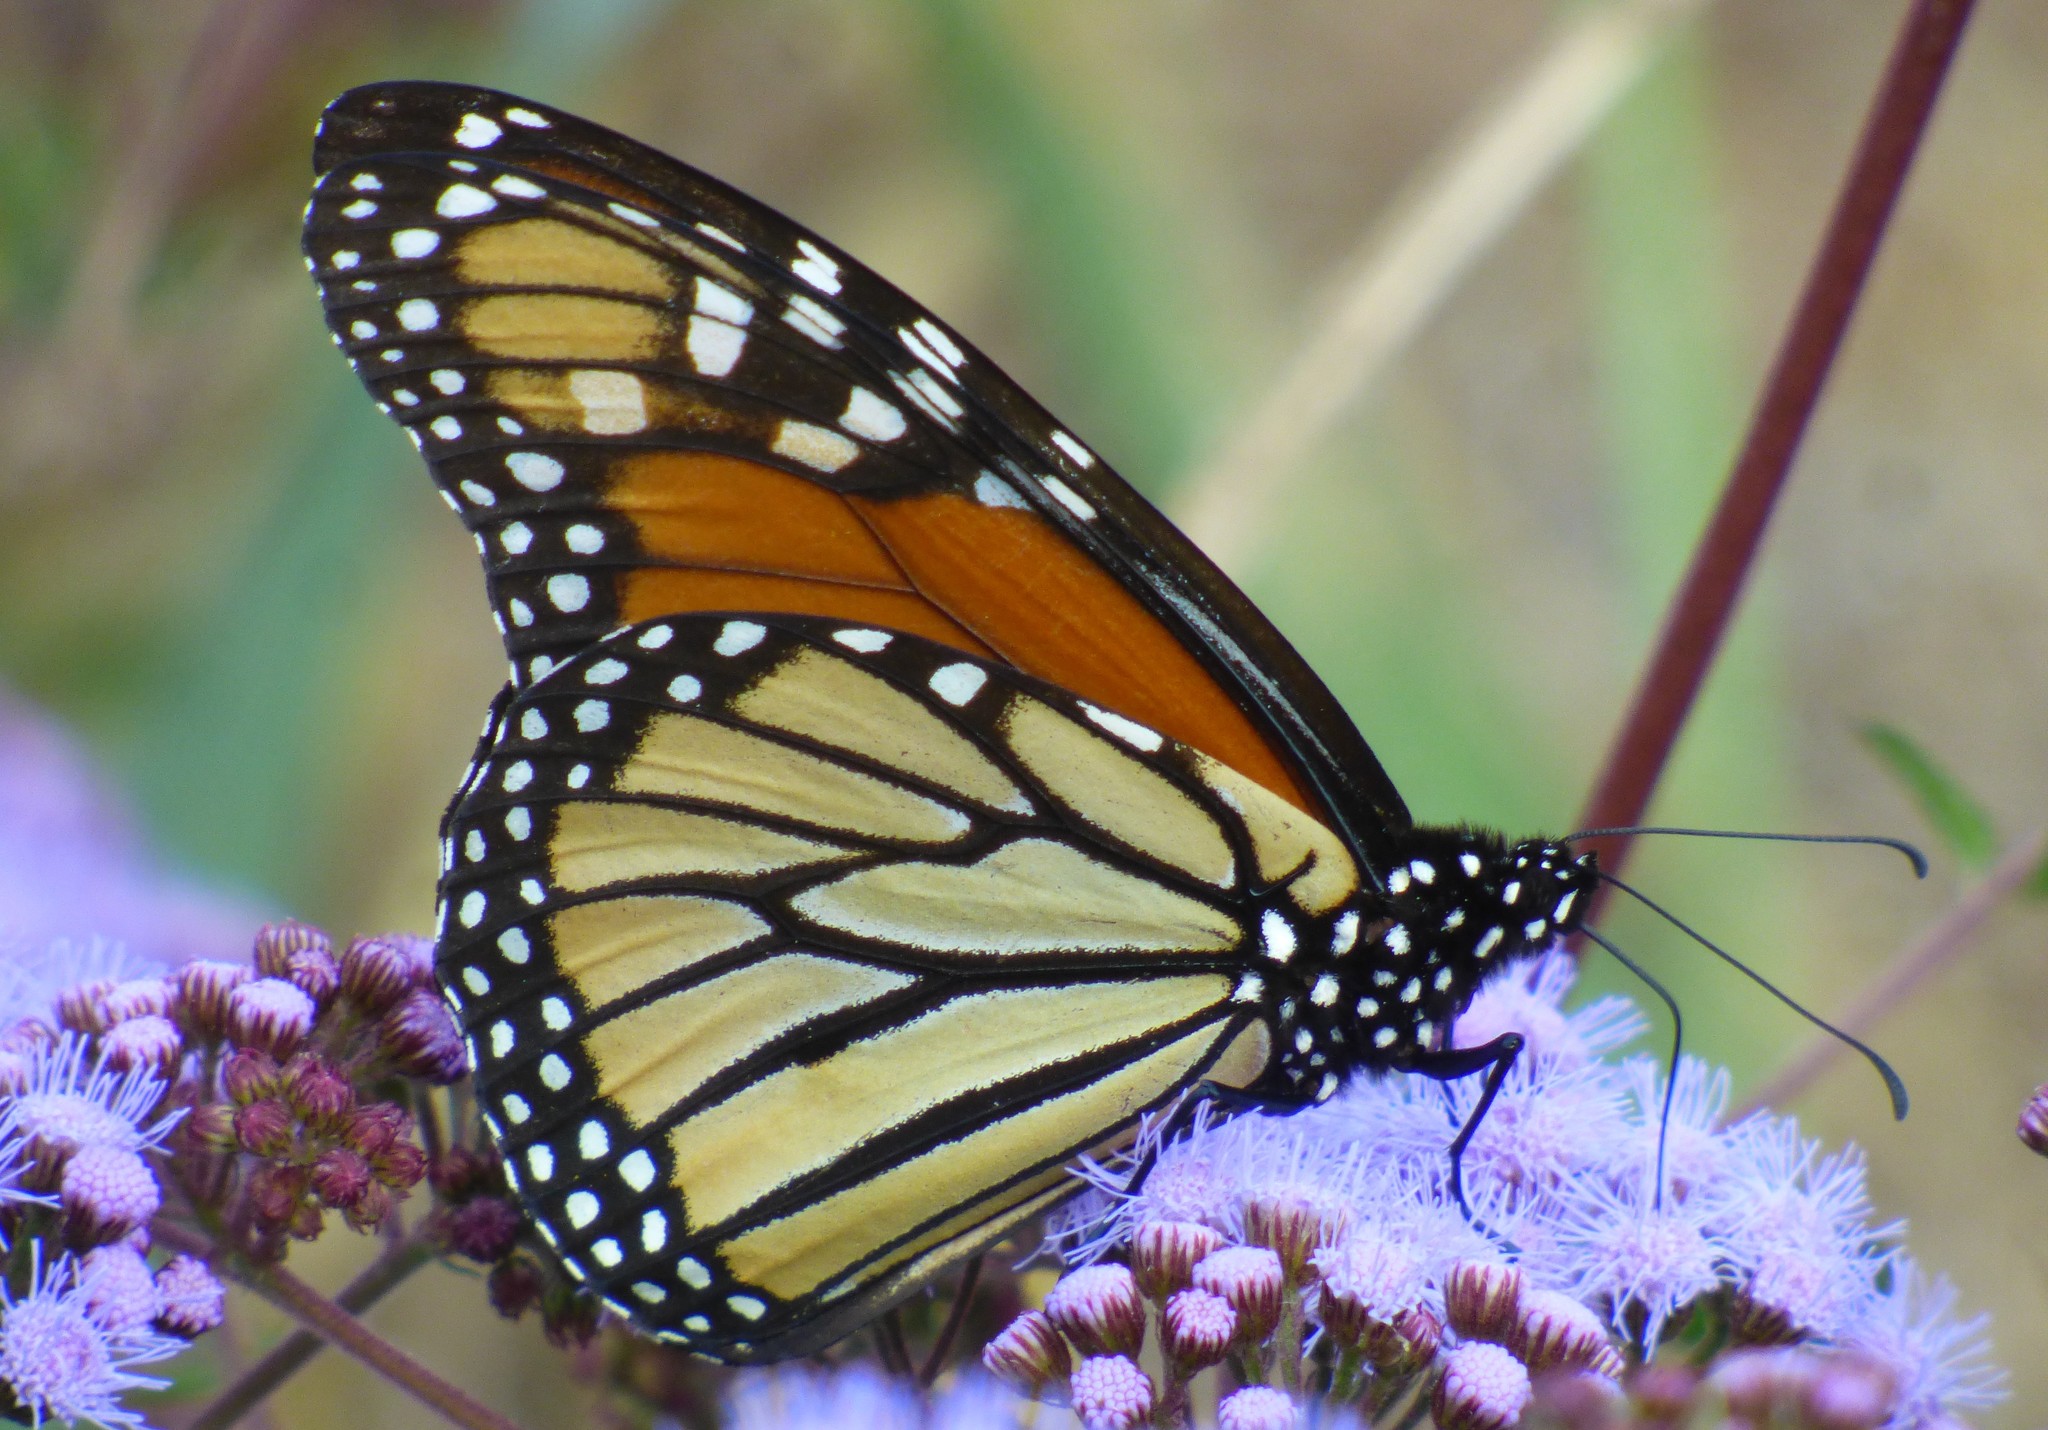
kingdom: Animalia
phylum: Arthropoda
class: Insecta
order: Lepidoptera
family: Nymphalidae
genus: Danaus
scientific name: Danaus plexippus
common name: Monarch
